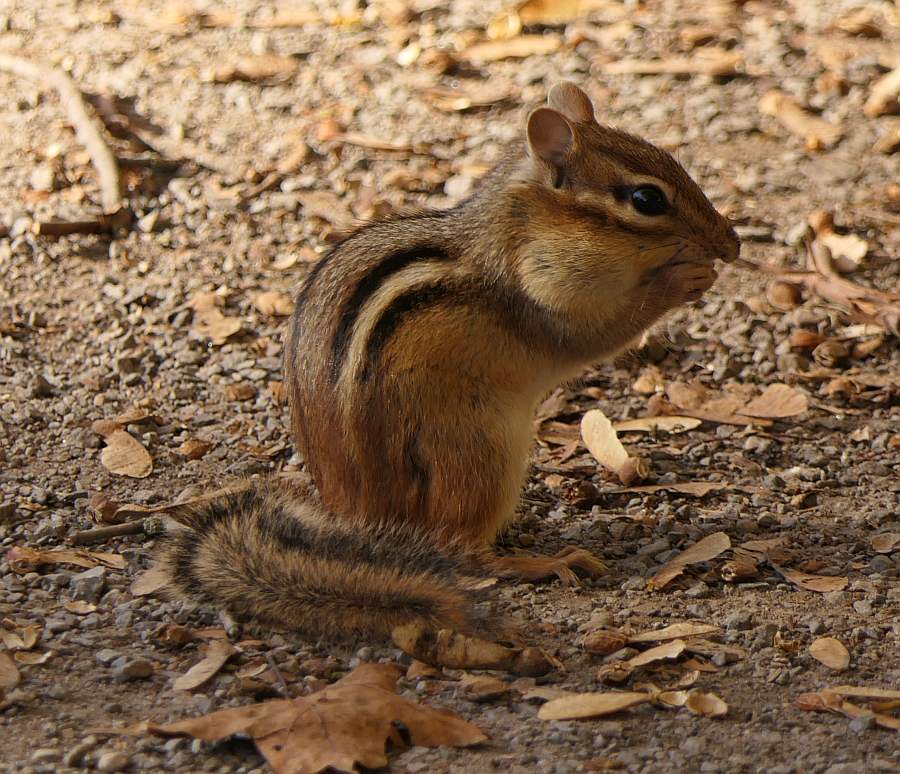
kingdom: Animalia
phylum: Chordata
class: Mammalia
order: Rodentia
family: Sciuridae
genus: Tamias
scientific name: Tamias striatus
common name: Eastern chipmunk
